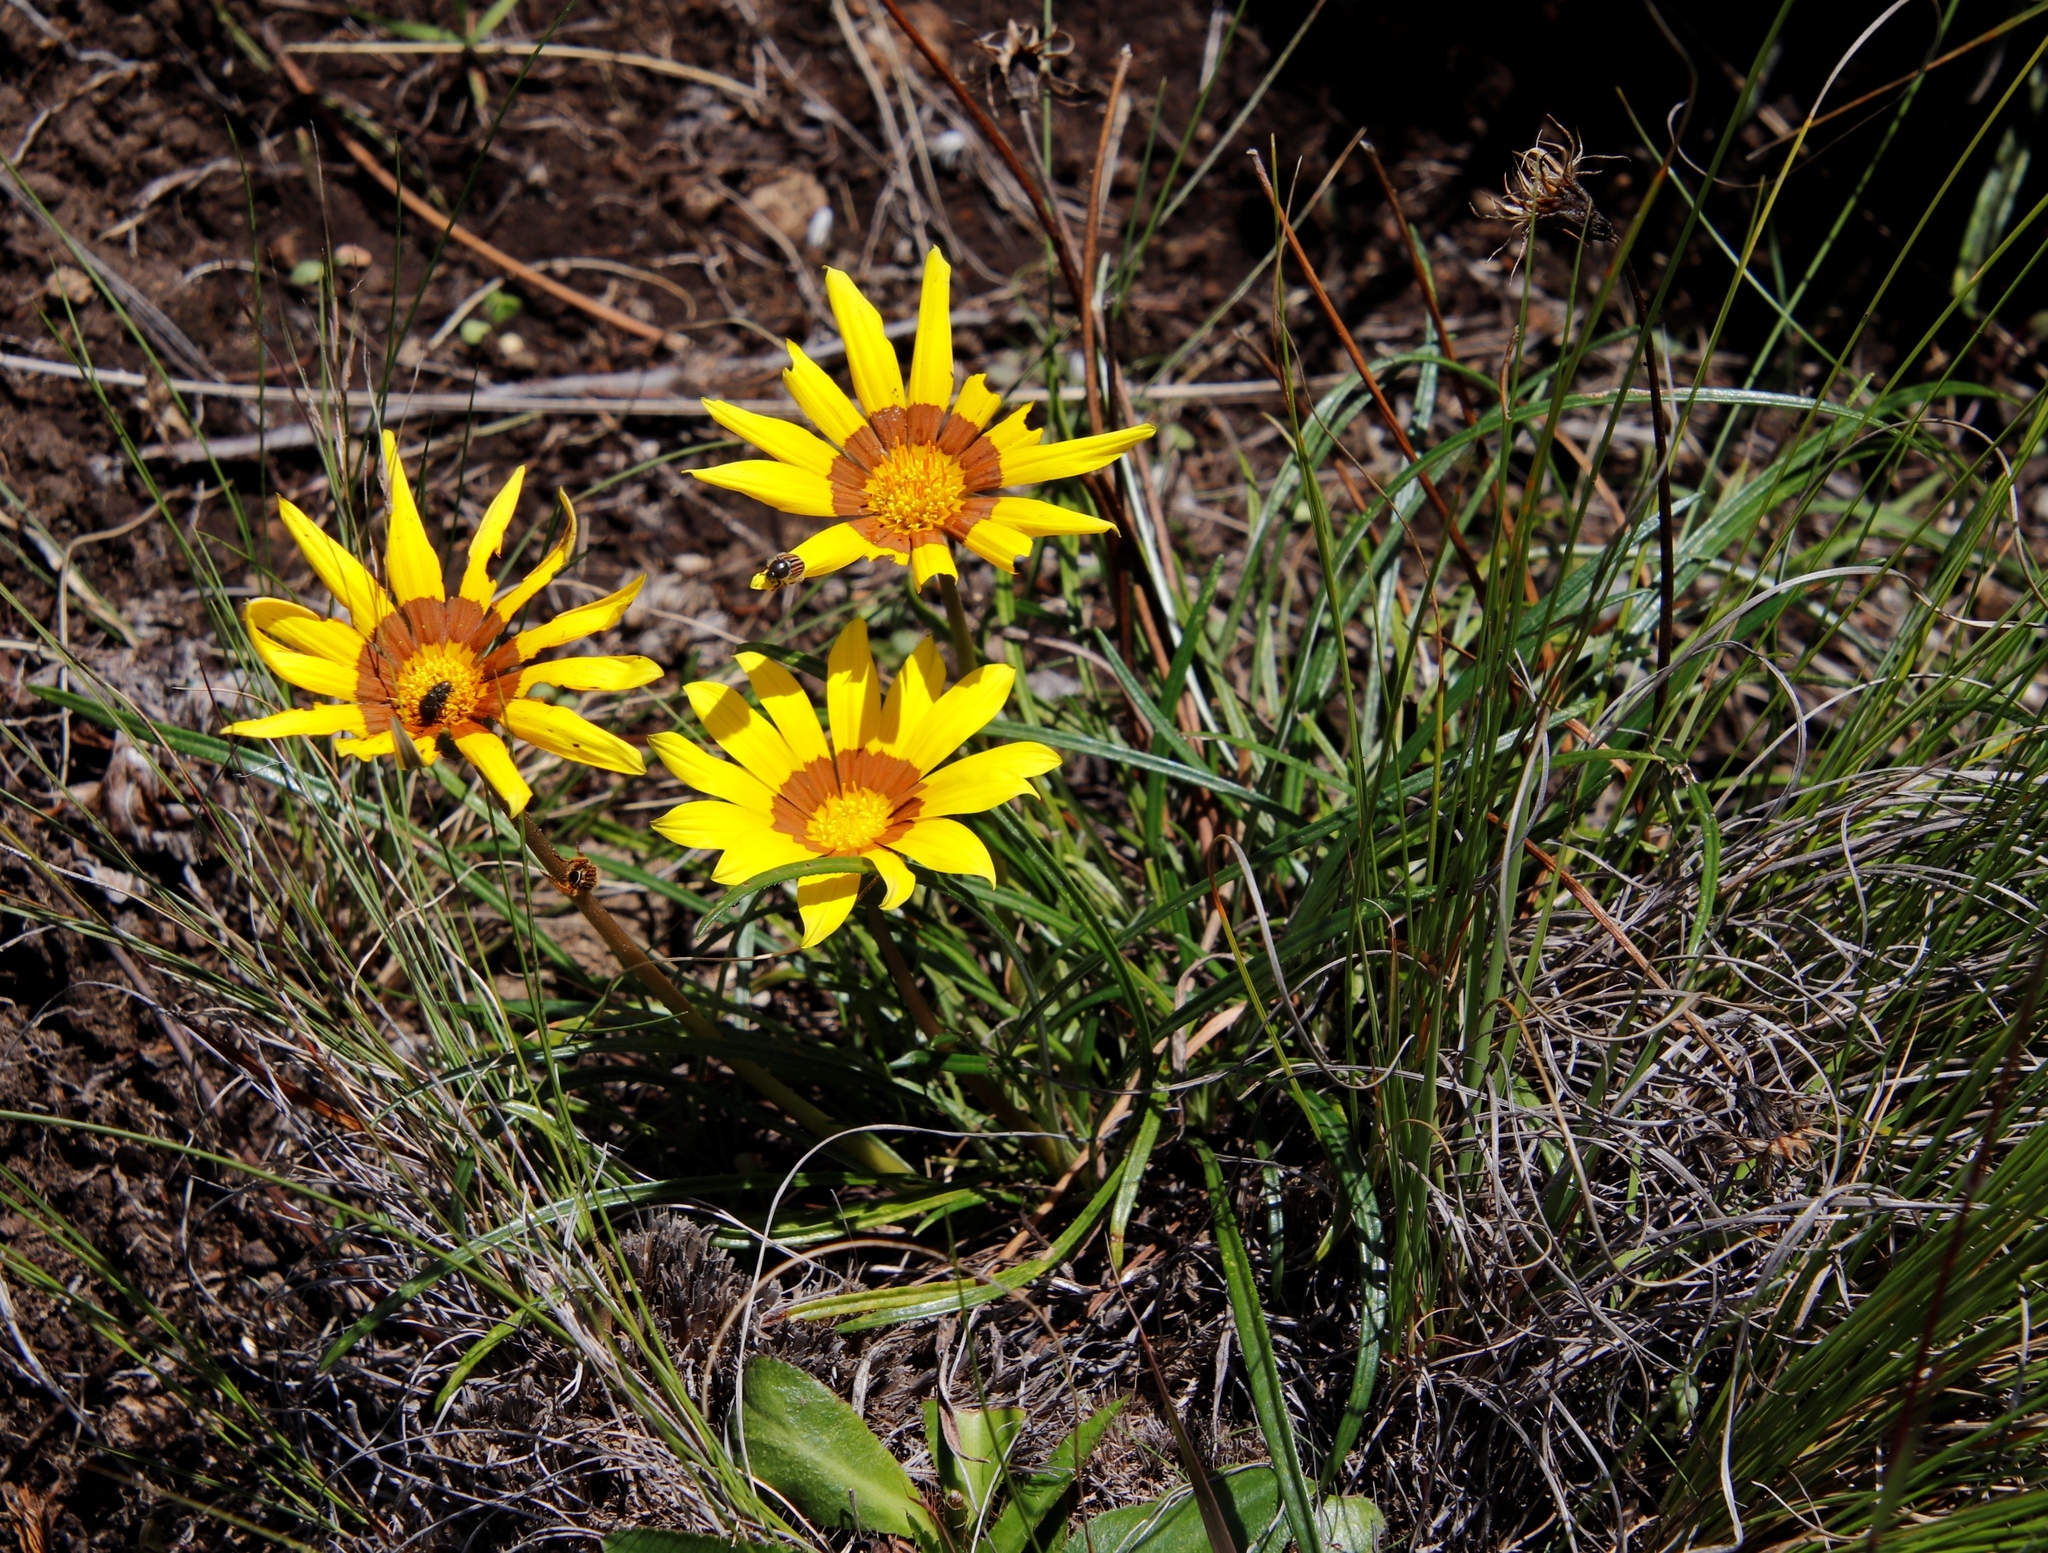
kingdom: Plantae
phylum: Tracheophyta
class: Magnoliopsida
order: Asterales
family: Asteraceae
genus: Gazania
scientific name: Gazania linearis
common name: Treasureflower
